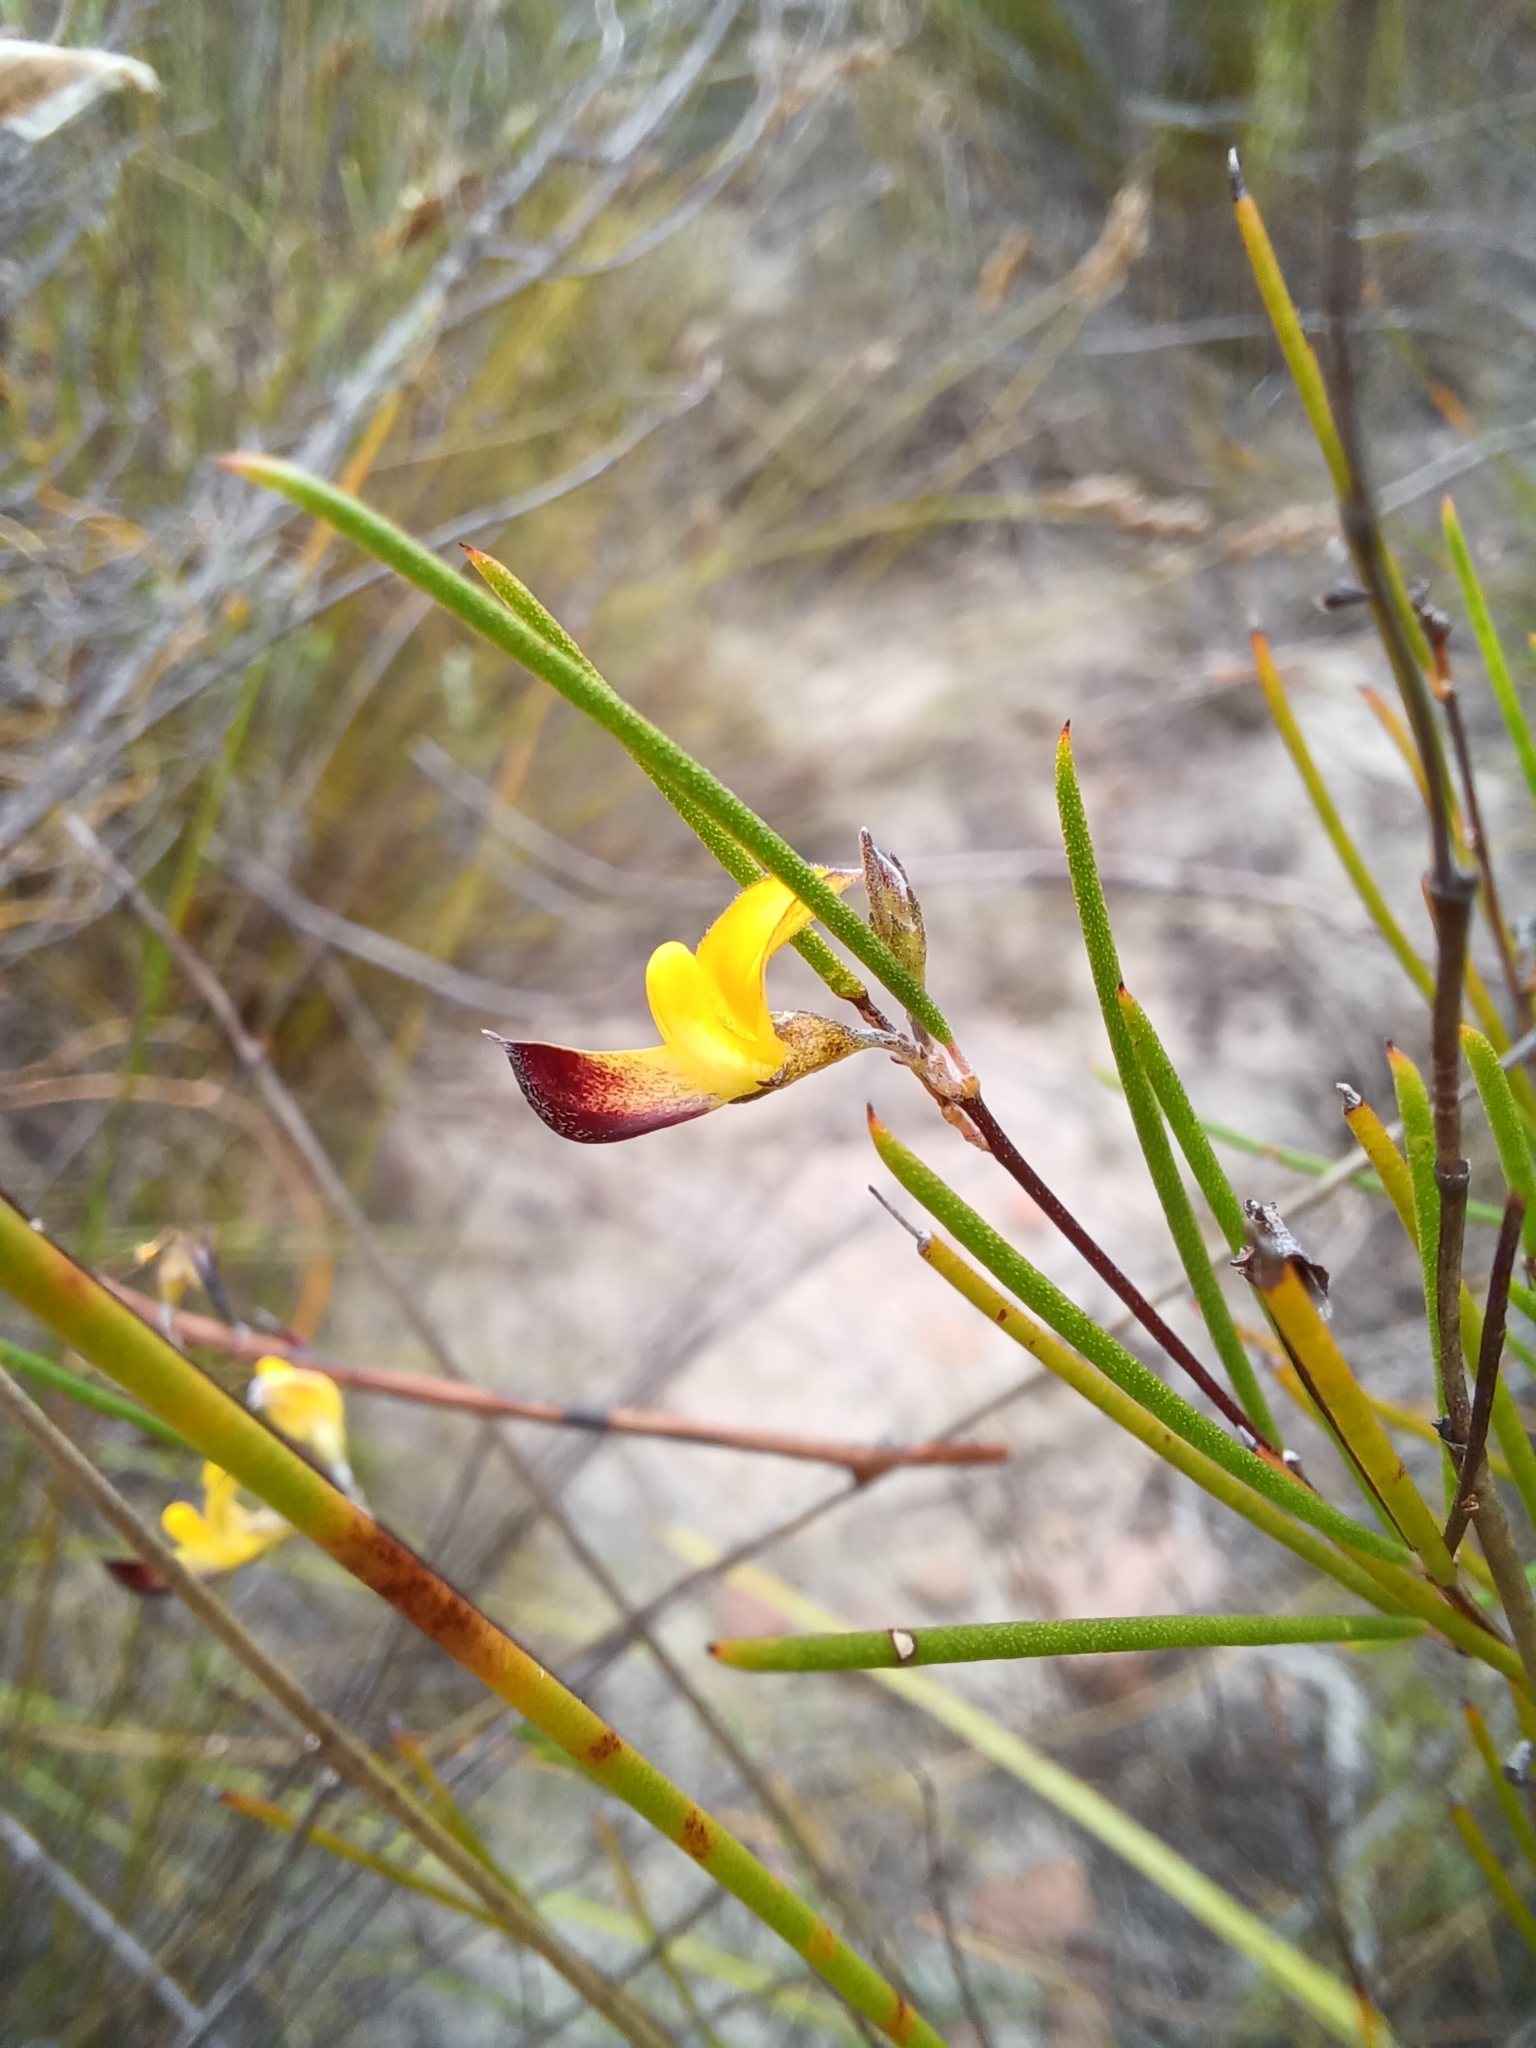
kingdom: Plantae
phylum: Tracheophyta
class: Magnoliopsida
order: Fabales
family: Fabaceae
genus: Aspalathus
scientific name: Aspalathus linearis
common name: Rooibos-tea
